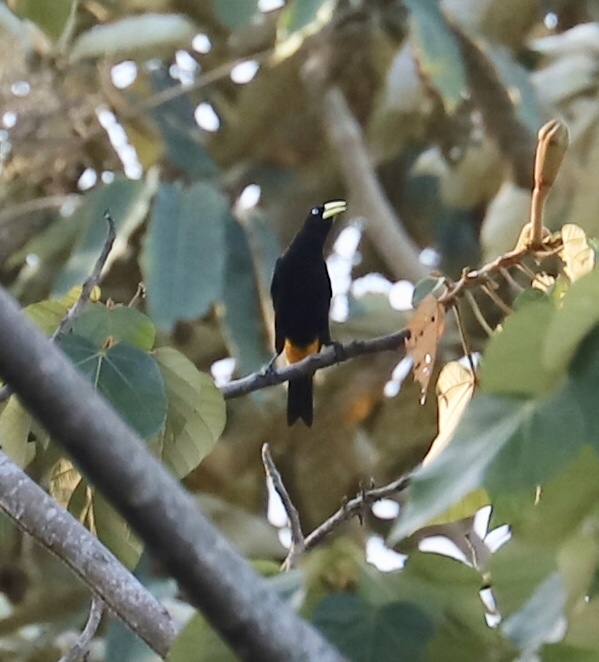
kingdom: Animalia
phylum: Chordata
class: Aves
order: Passeriformes
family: Icteridae
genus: Cacicus
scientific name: Cacicus cela
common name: Yellow-rumped cacique
